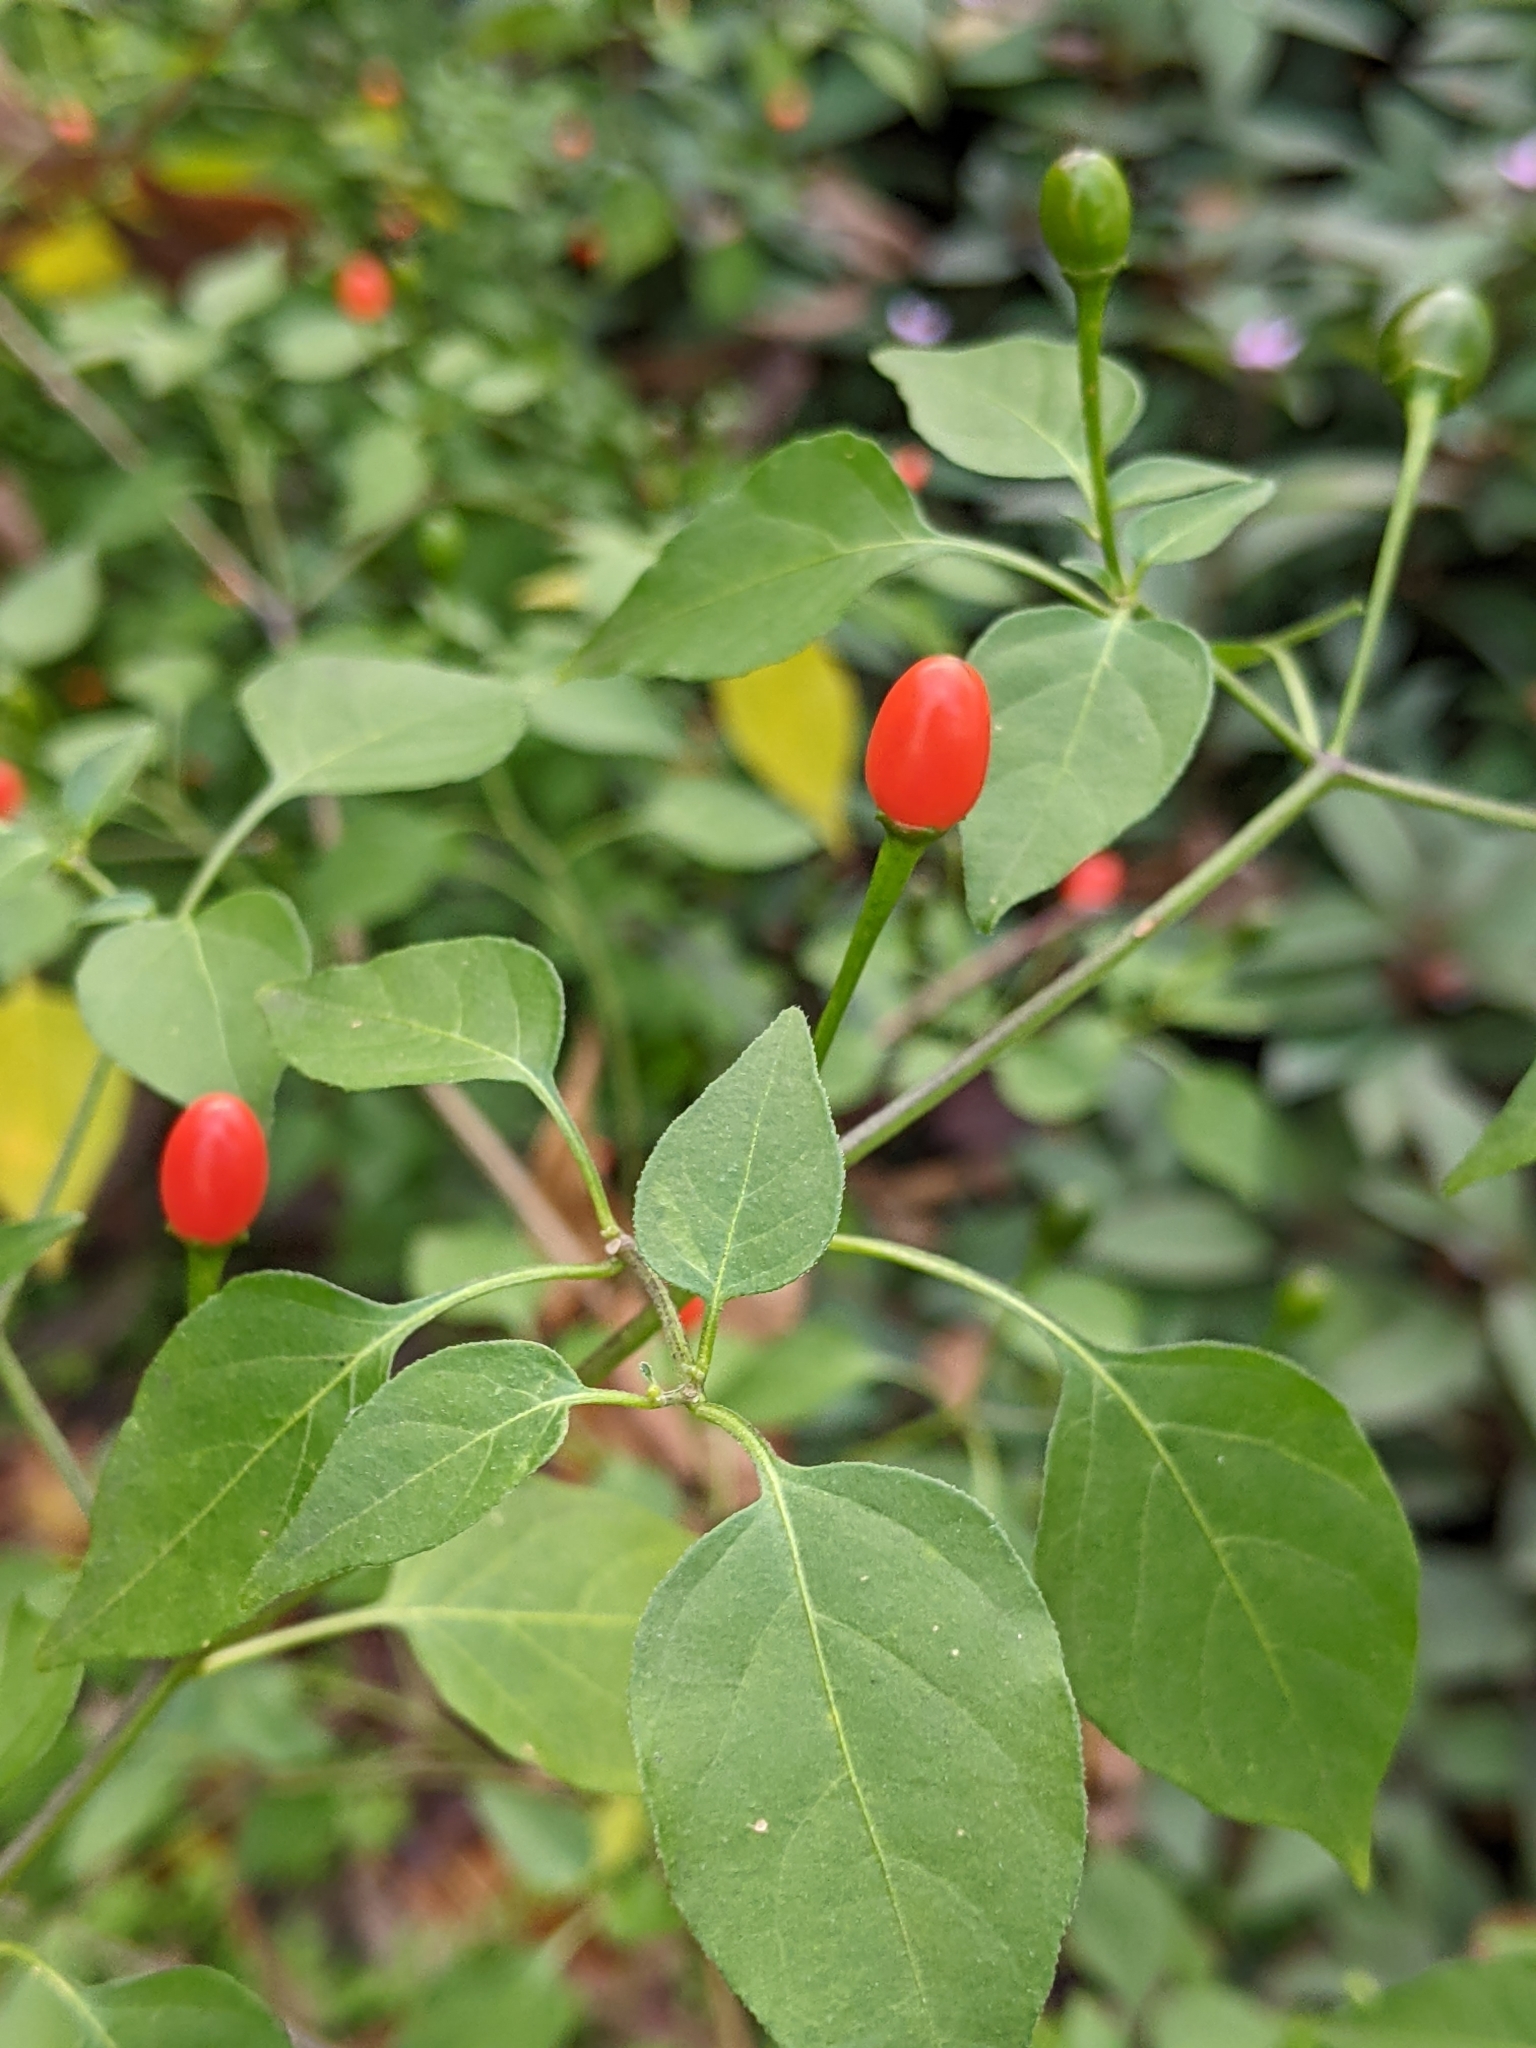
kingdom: Plantae
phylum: Tracheophyta
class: Magnoliopsida
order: Solanales
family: Solanaceae
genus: Capsicum
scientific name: Capsicum annuum
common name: Sweet pepper
